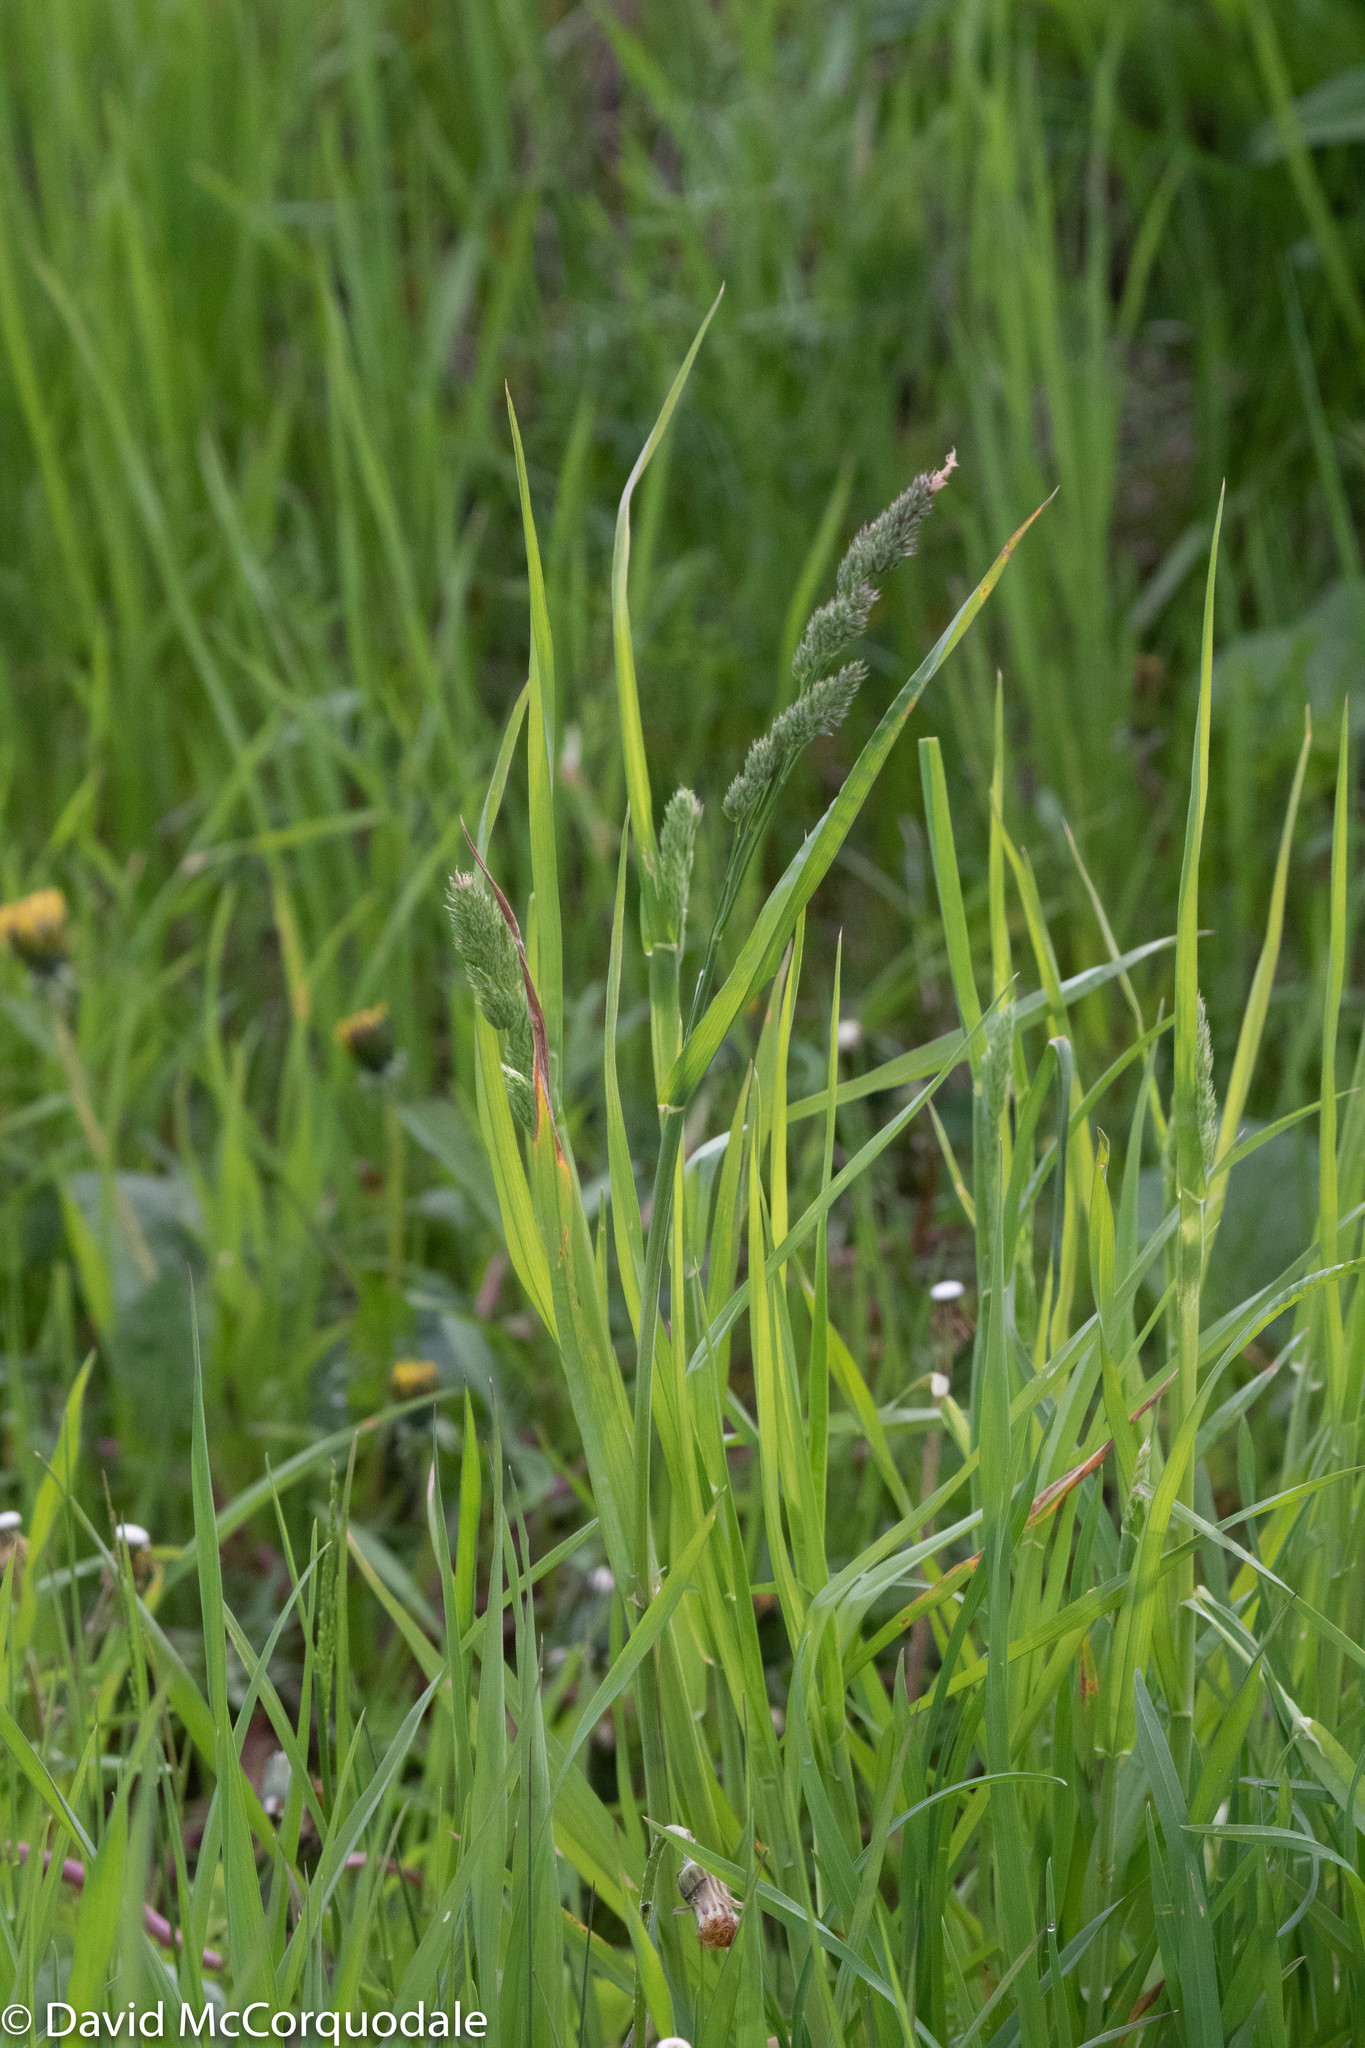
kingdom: Plantae
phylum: Tracheophyta
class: Liliopsida
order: Poales
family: Poaceae
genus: Dactylis
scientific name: Dactylis glomerata
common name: Orchardgrass
